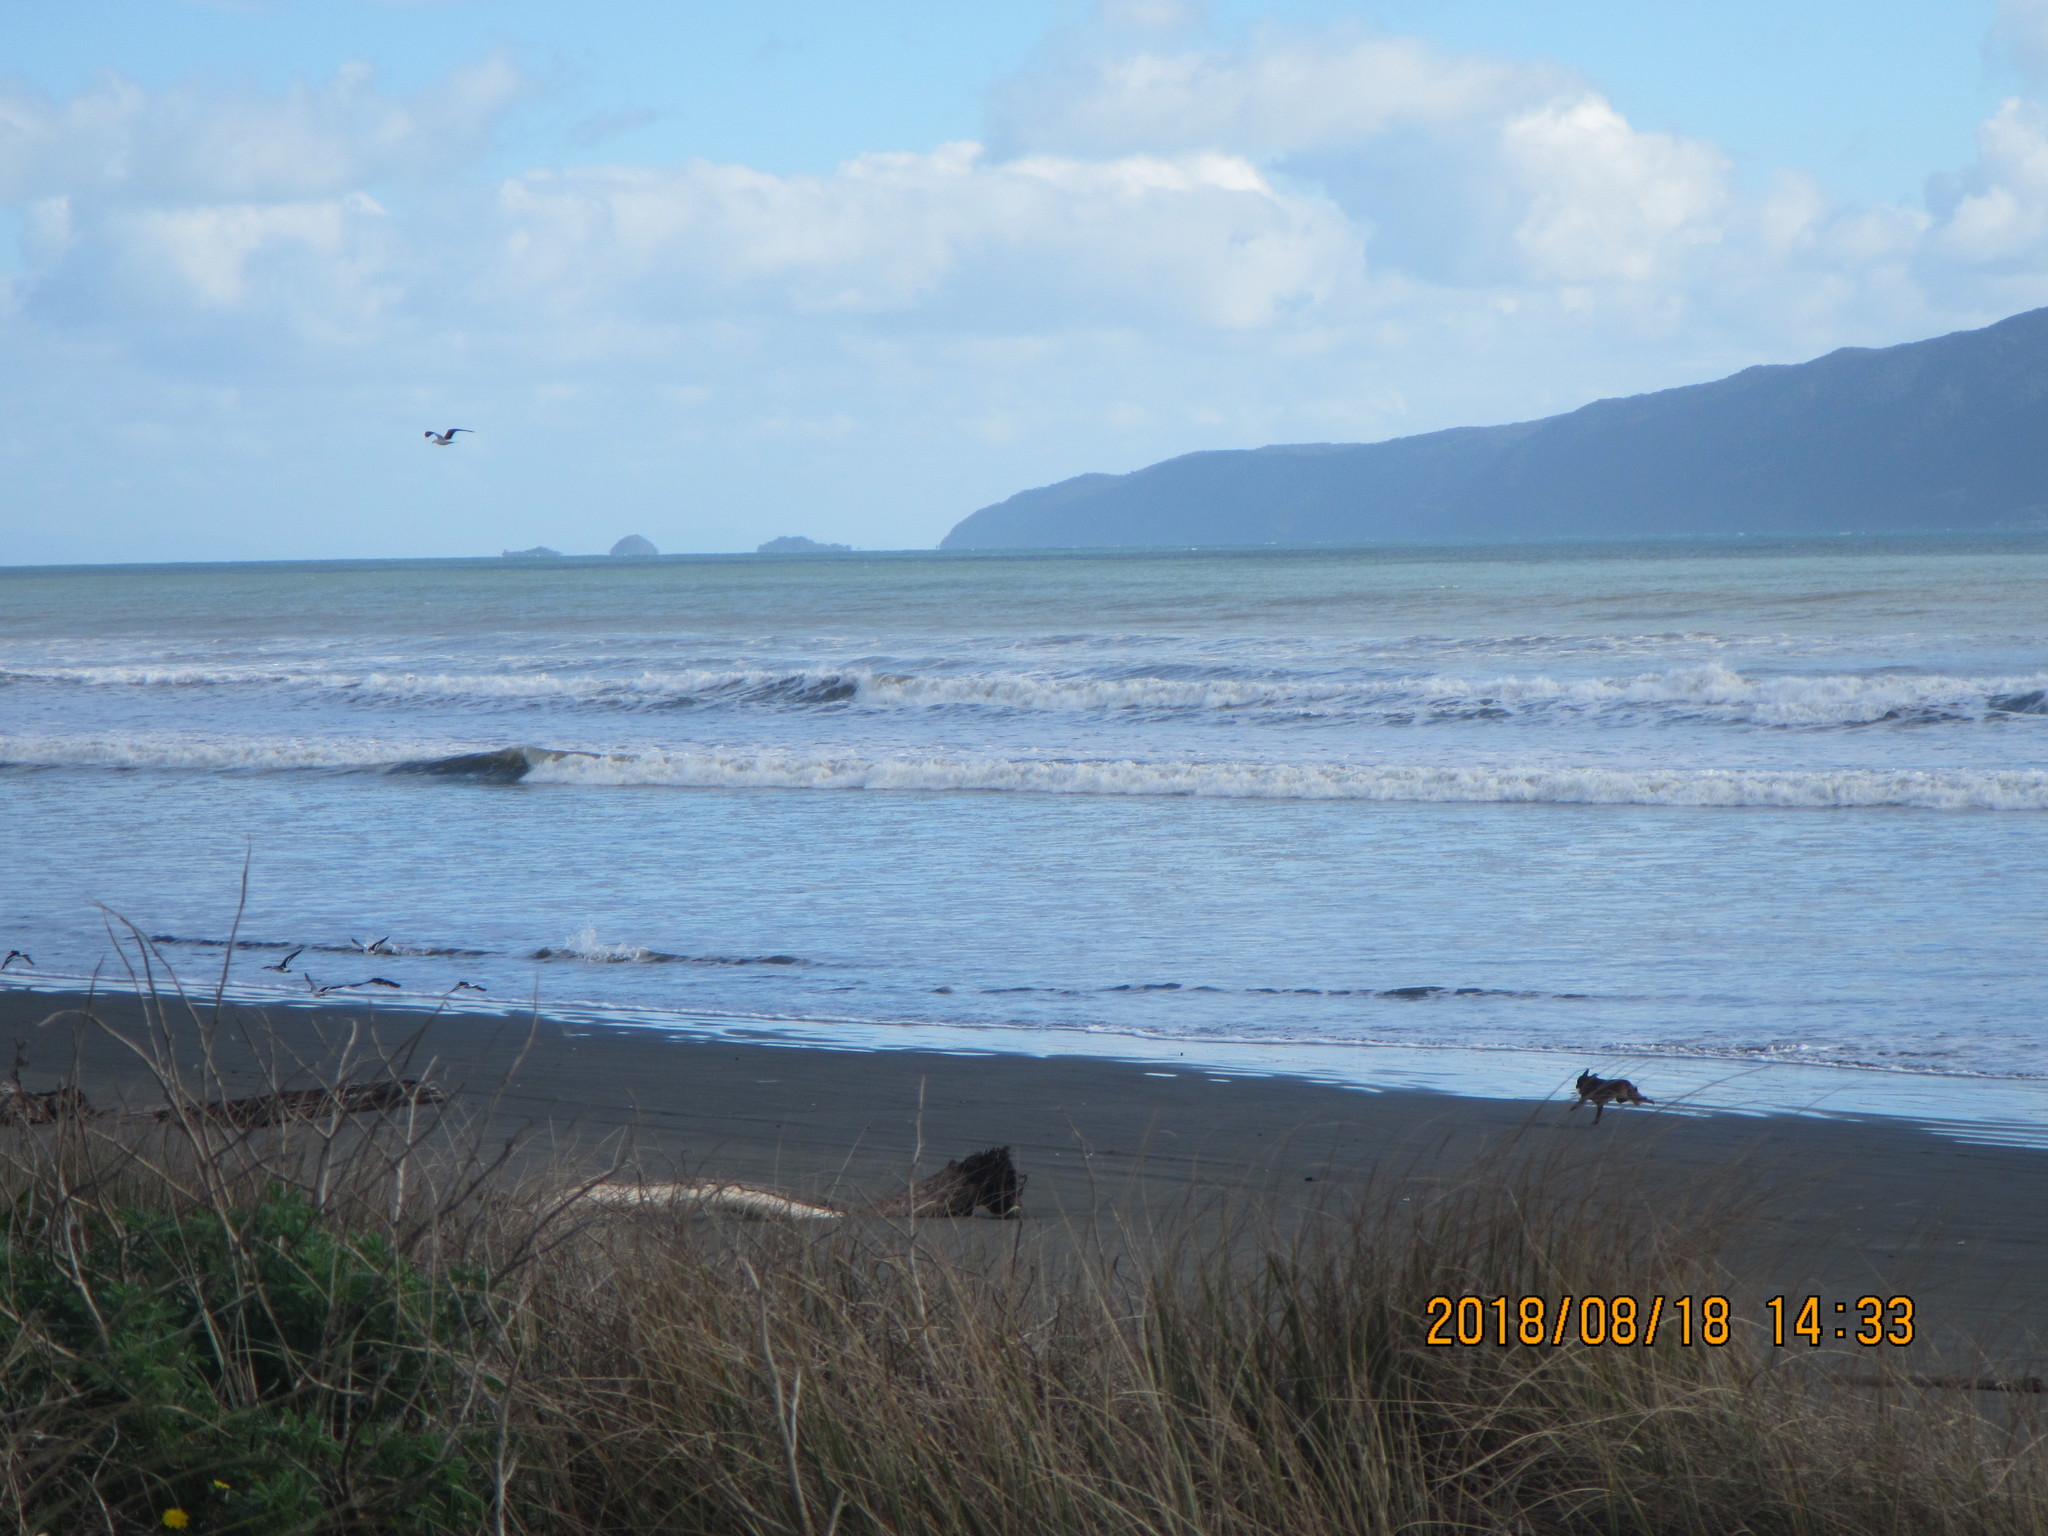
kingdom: Animalia
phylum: Chordata
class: Aves
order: Charadriiformes
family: Haematopodidae
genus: Haematopus
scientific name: Haematopus finschi
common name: South island oystercatcher
